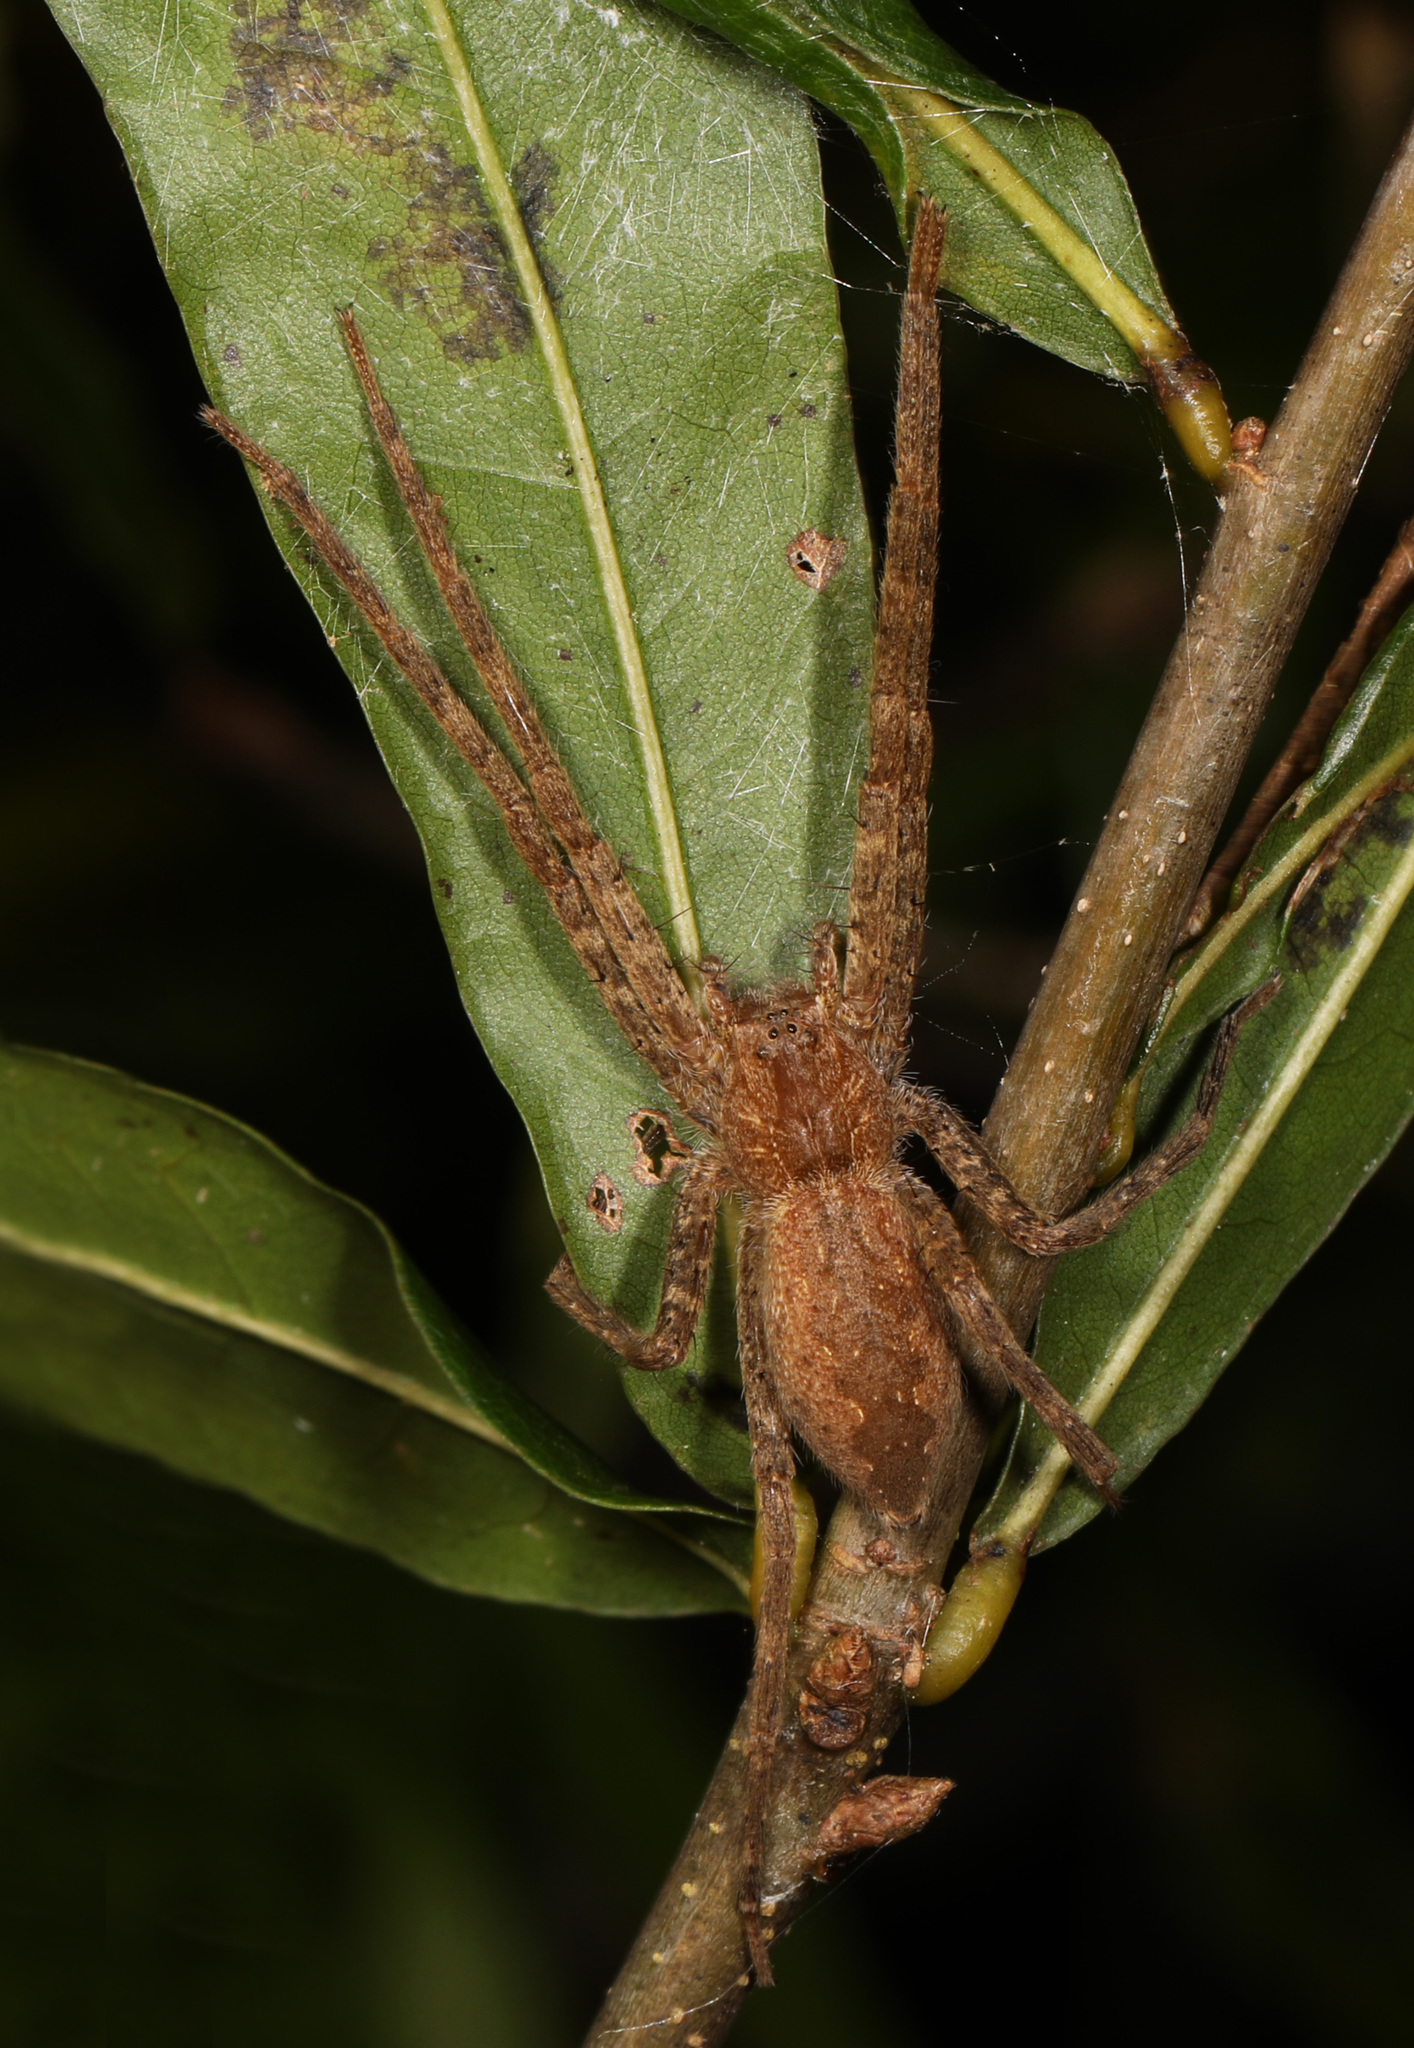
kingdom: Animalia
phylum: Arthropoda
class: Arachnida
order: Araneae
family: Pisauridae
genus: Pisaurina
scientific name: Pisaurina mira
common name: American nursery web spider
